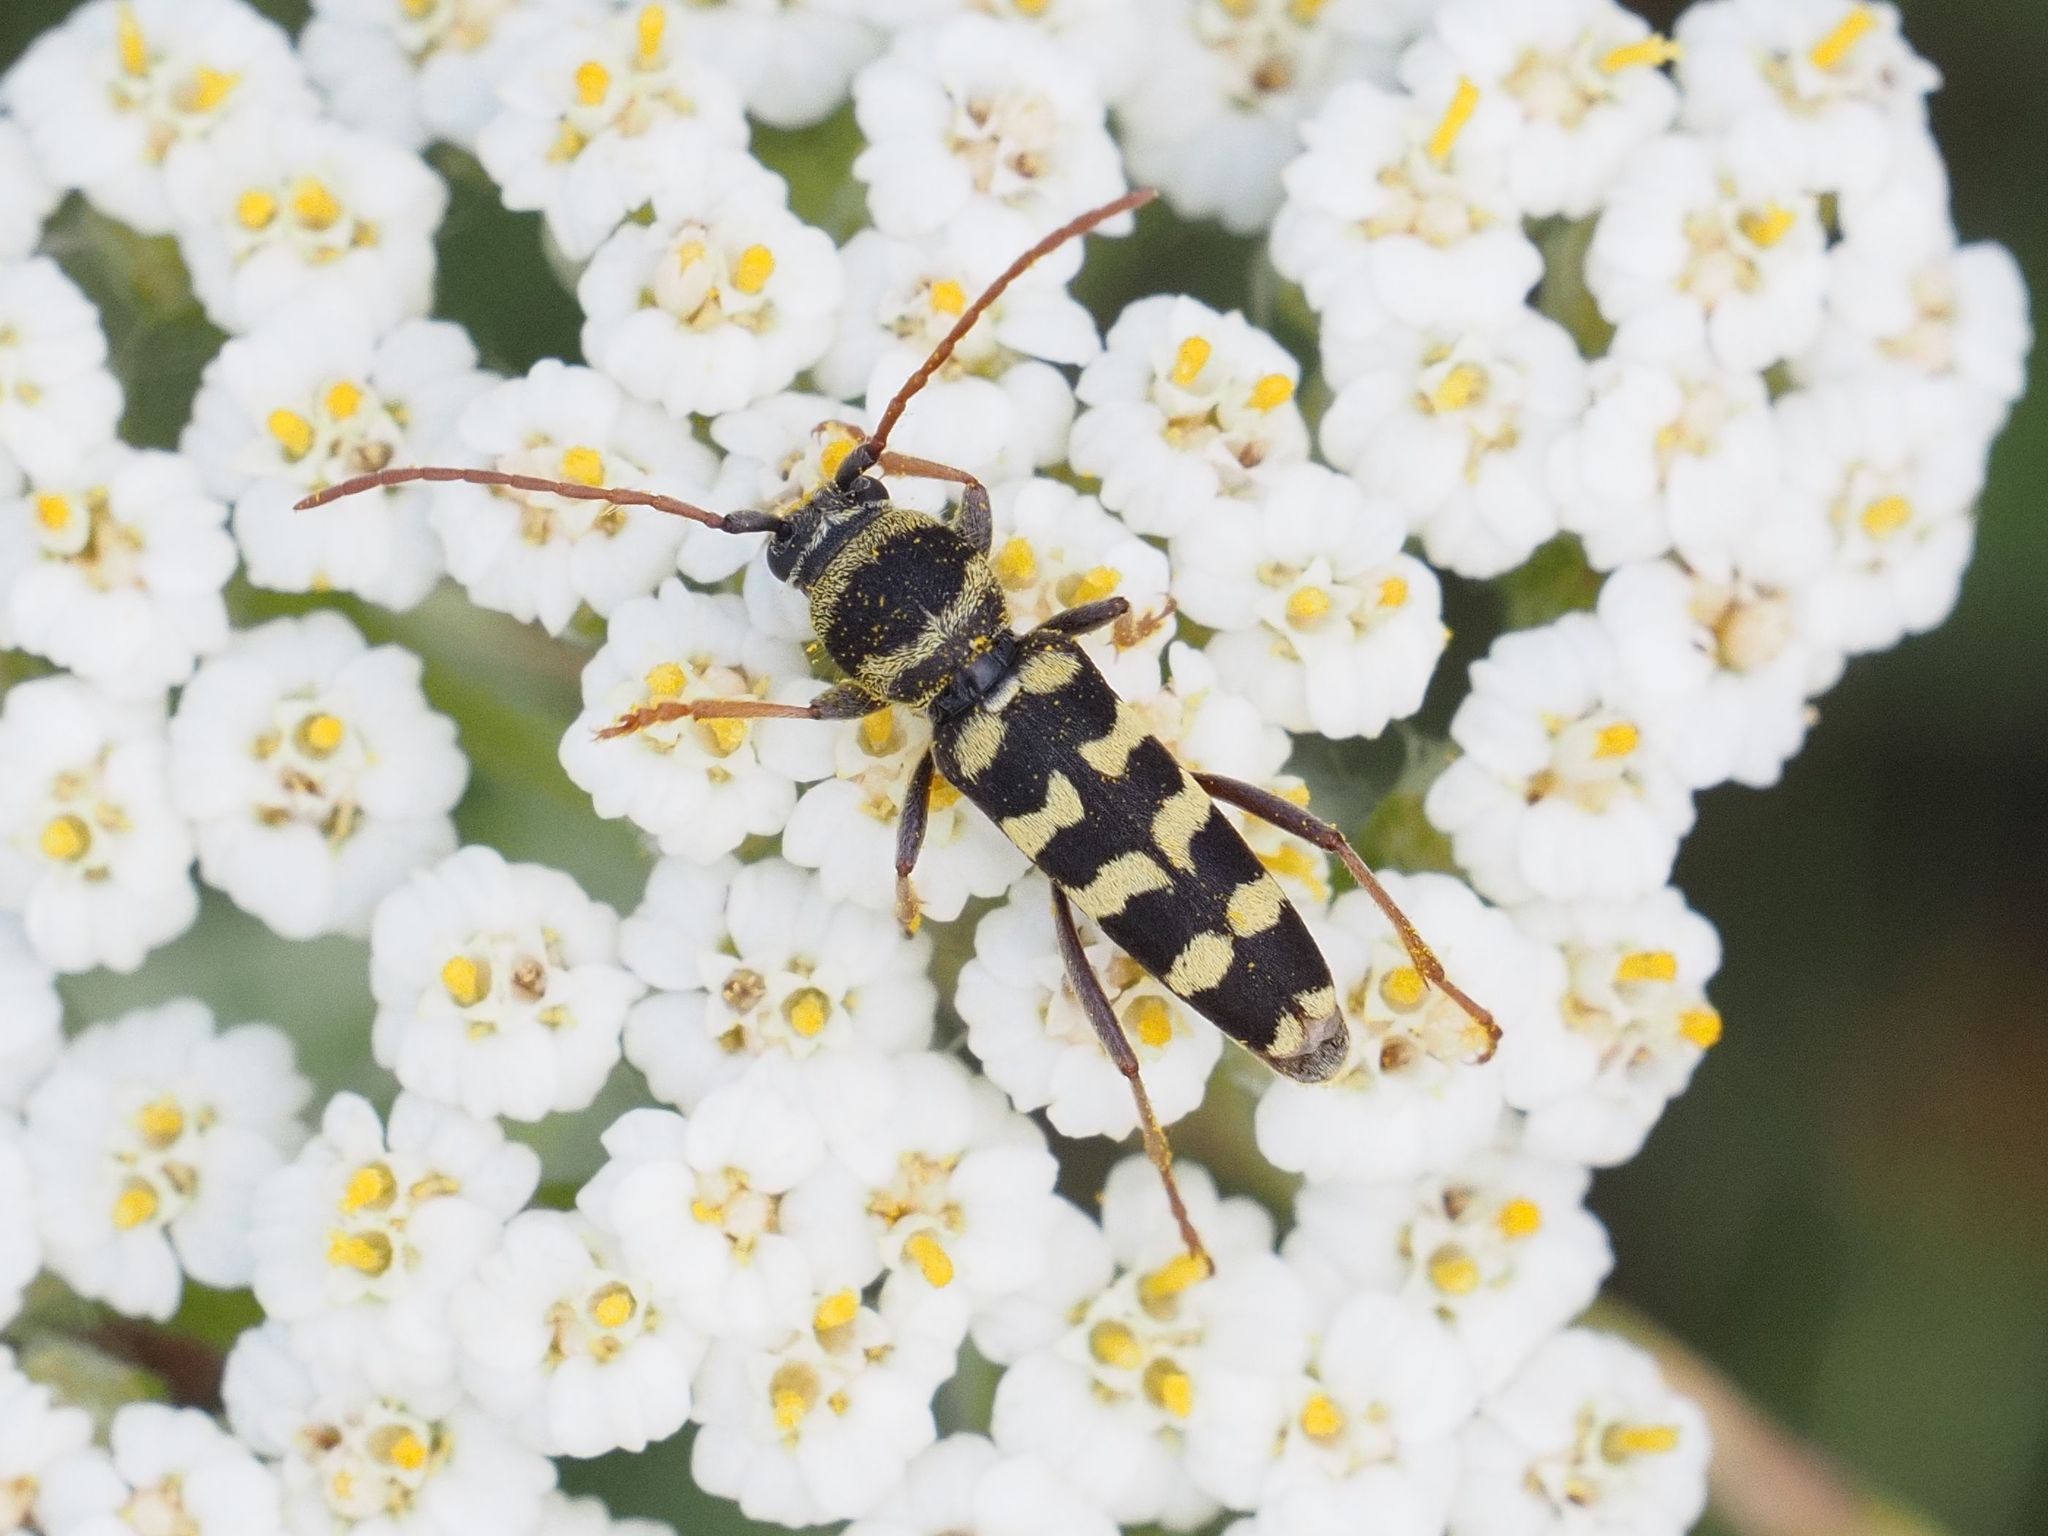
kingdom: Animalia
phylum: Arthropoda
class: Insecta
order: Coleoptera
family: Cerambycidae
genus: Plagionotus
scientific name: Plagionotus floralis
